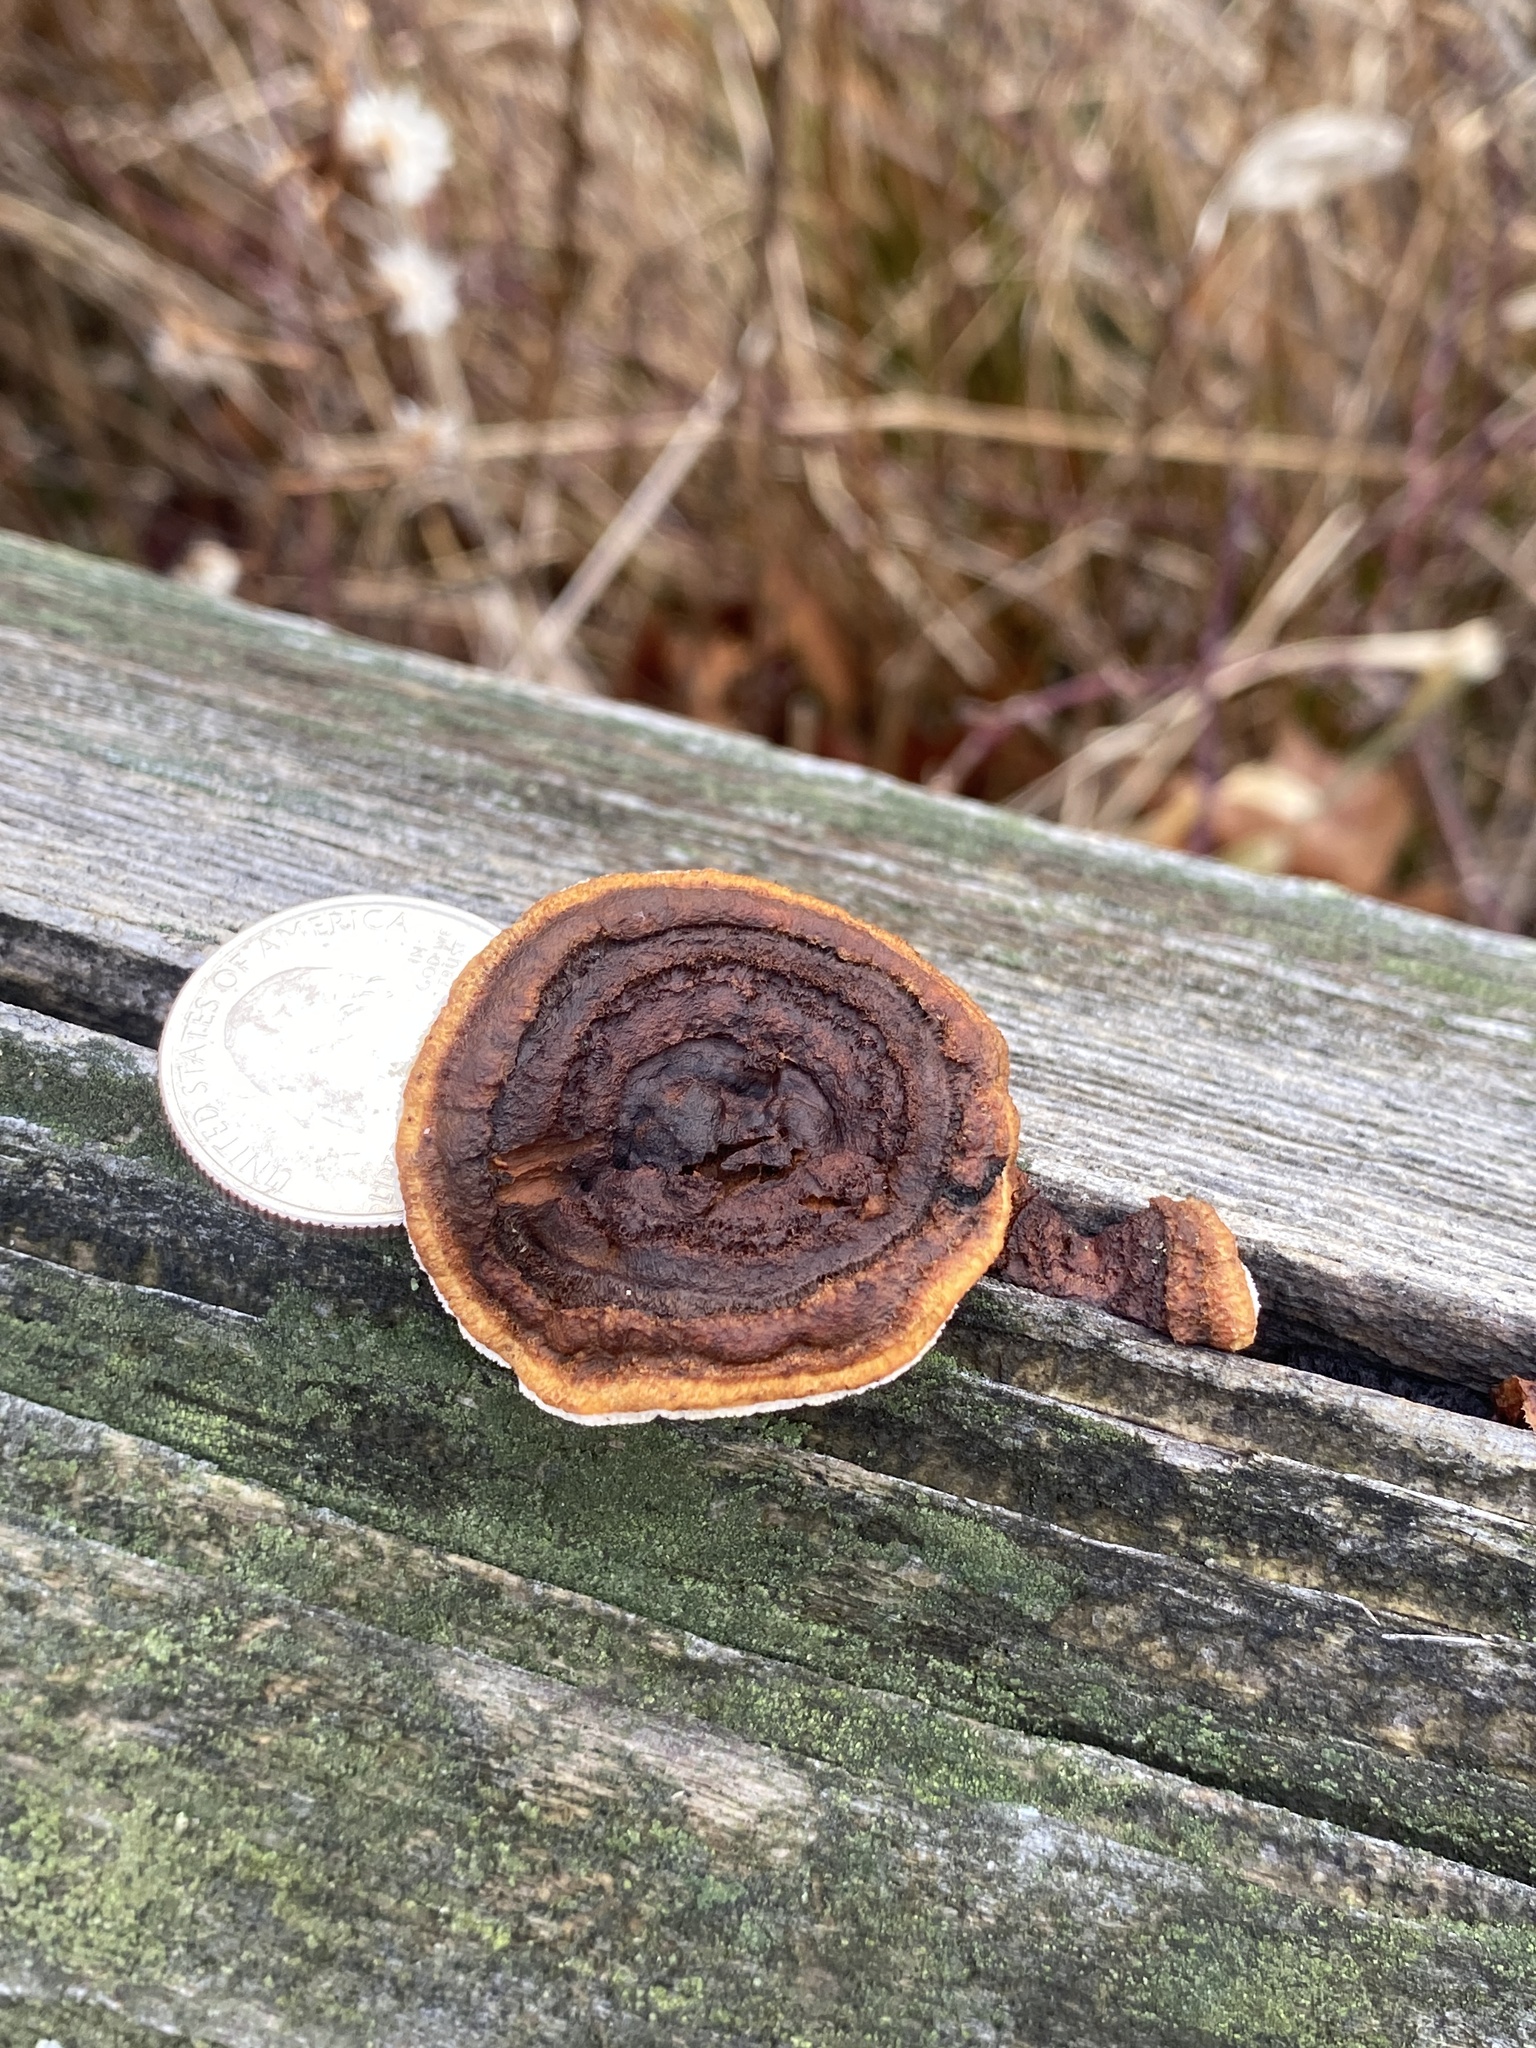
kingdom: Fungi
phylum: Basidiomycota
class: Agaricomycetes
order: Gloeophyllales
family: Gloeophyllaceae
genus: Gloeophyllum
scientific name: Gloeophyllum sepiarium
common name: Conifer mazegill
